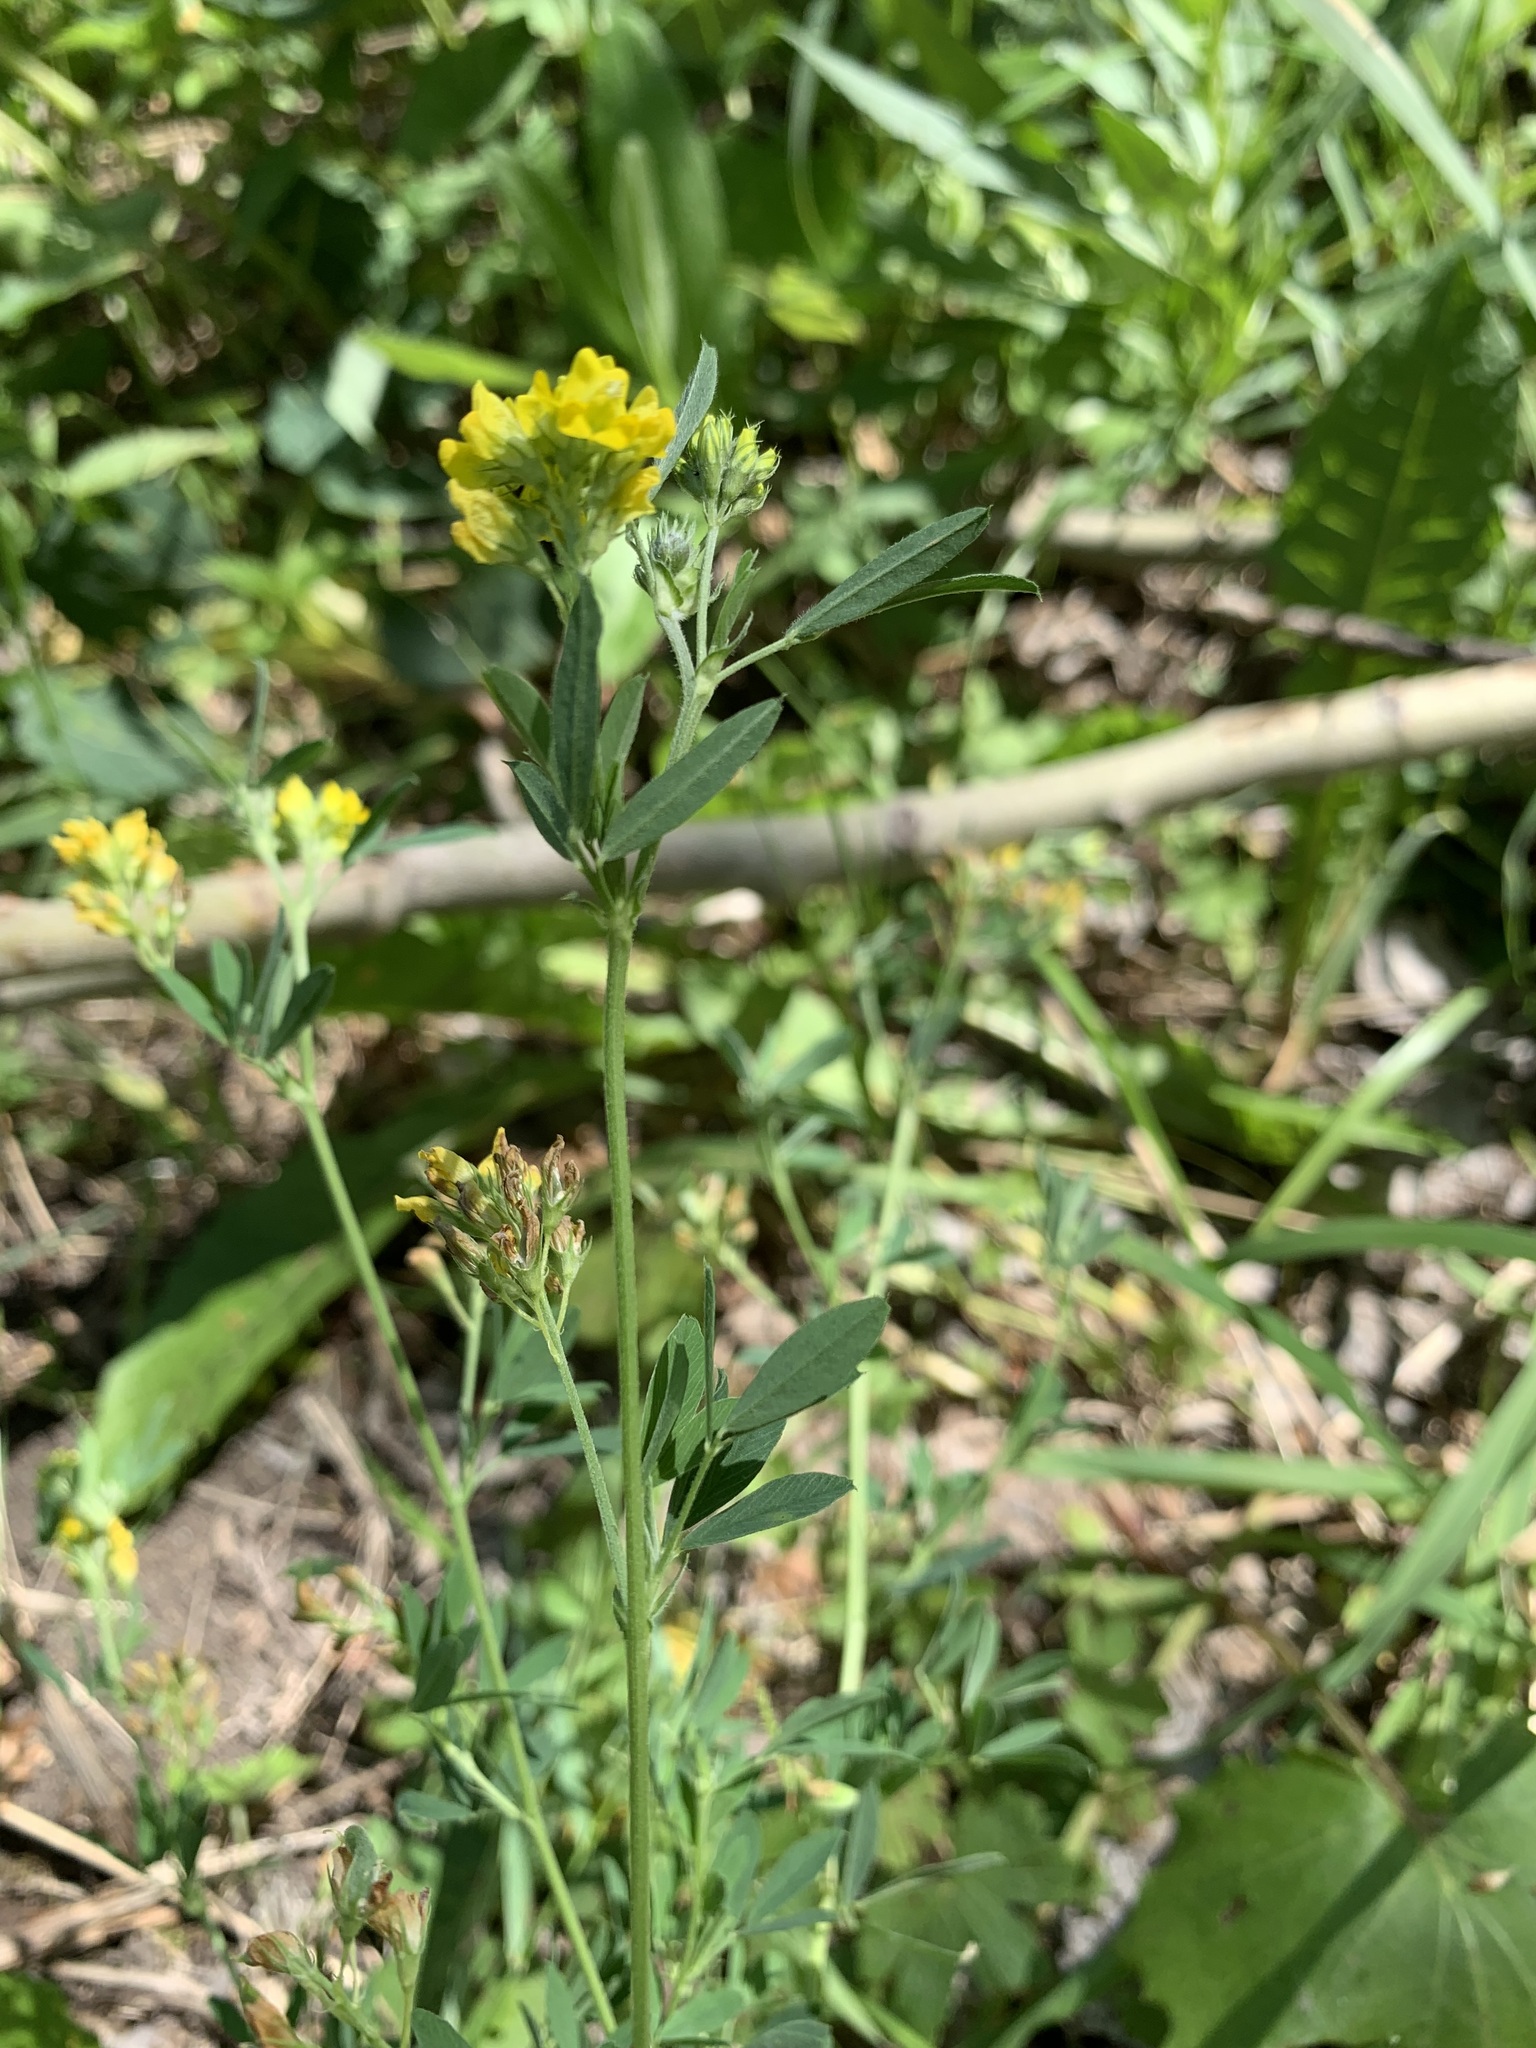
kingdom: Plantae
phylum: Tracheophyta
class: Magnoliopsida
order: Fabales
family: Fabaceae
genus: Medicago
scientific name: Medicago falcata
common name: Sickle medick
